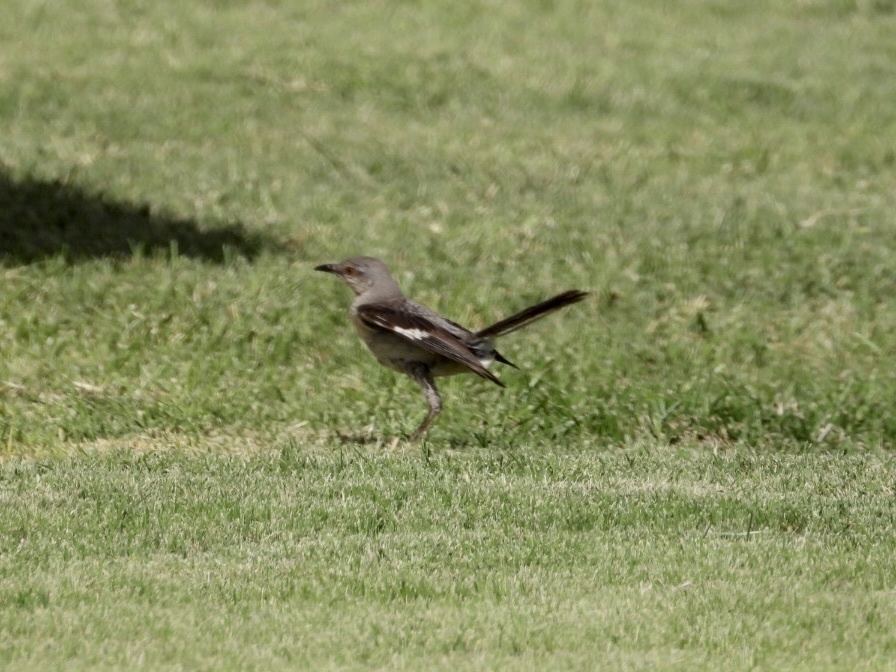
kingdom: Animalia
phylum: Chordata
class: Aves
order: Passeriformes
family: Mimidae
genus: Mimus
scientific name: Mimus polyglottos
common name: Northern mockingbird
